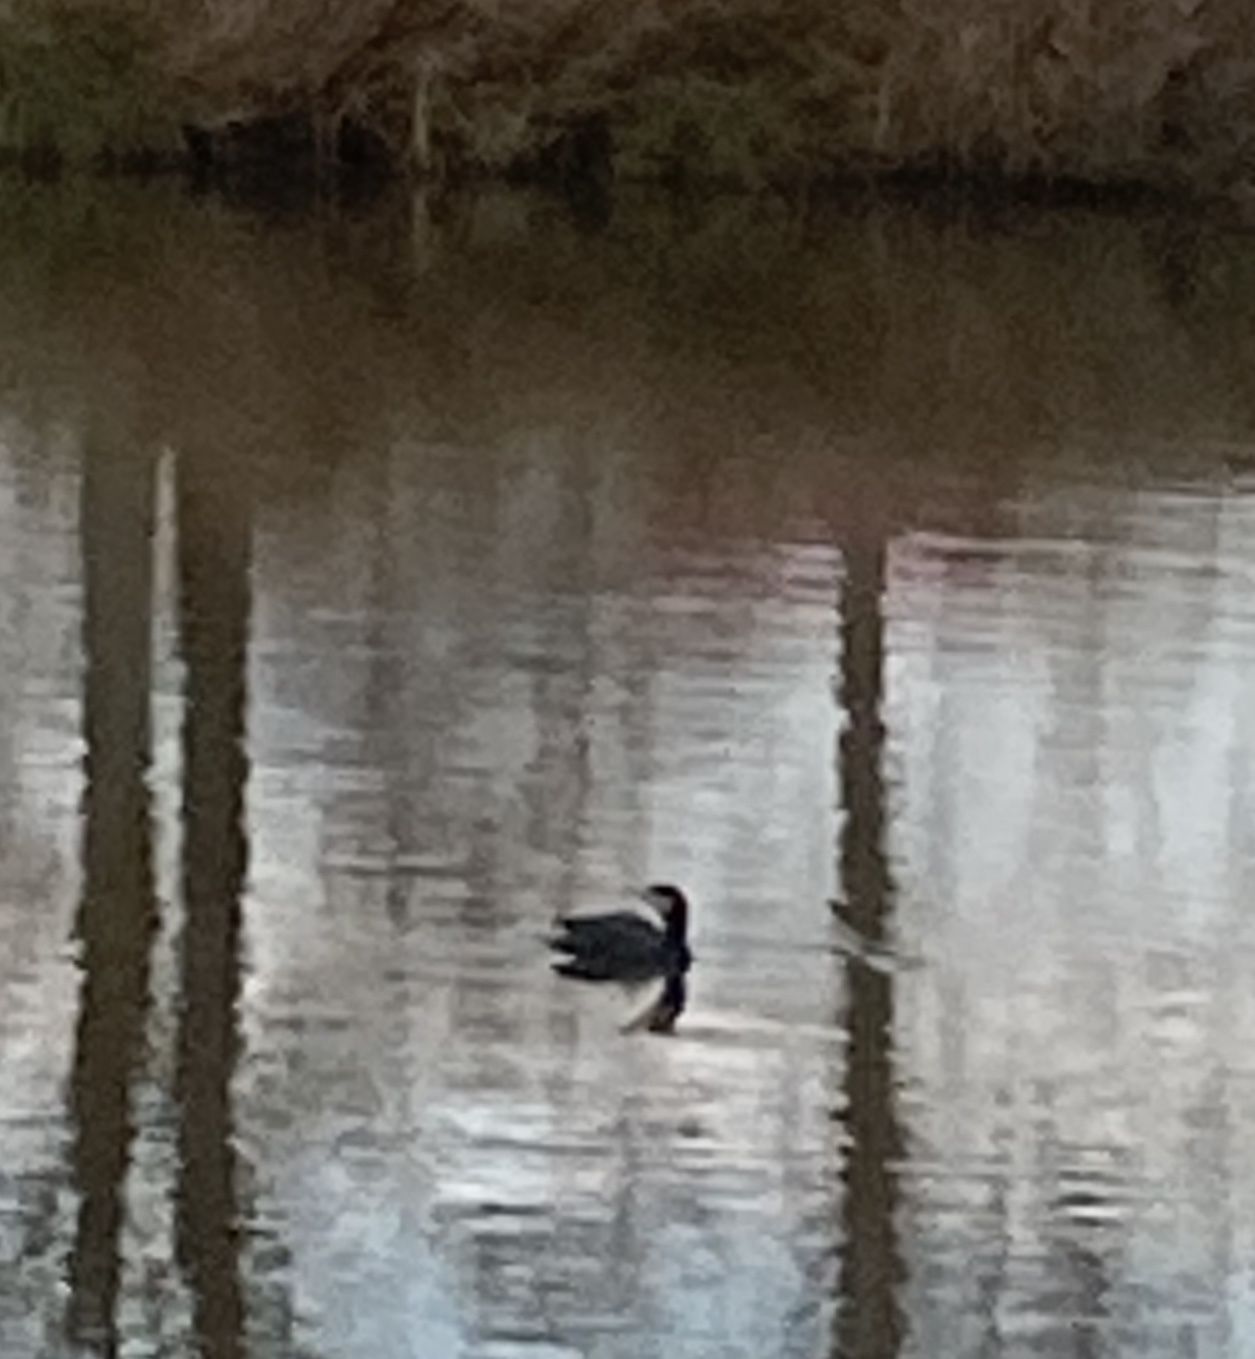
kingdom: Animalia
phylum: Chordata
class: Aves
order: Suliformes
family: Phalacrocoracidae
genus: Phalacrocorax
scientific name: Phalacrocorax carbo
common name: Great cormorant
